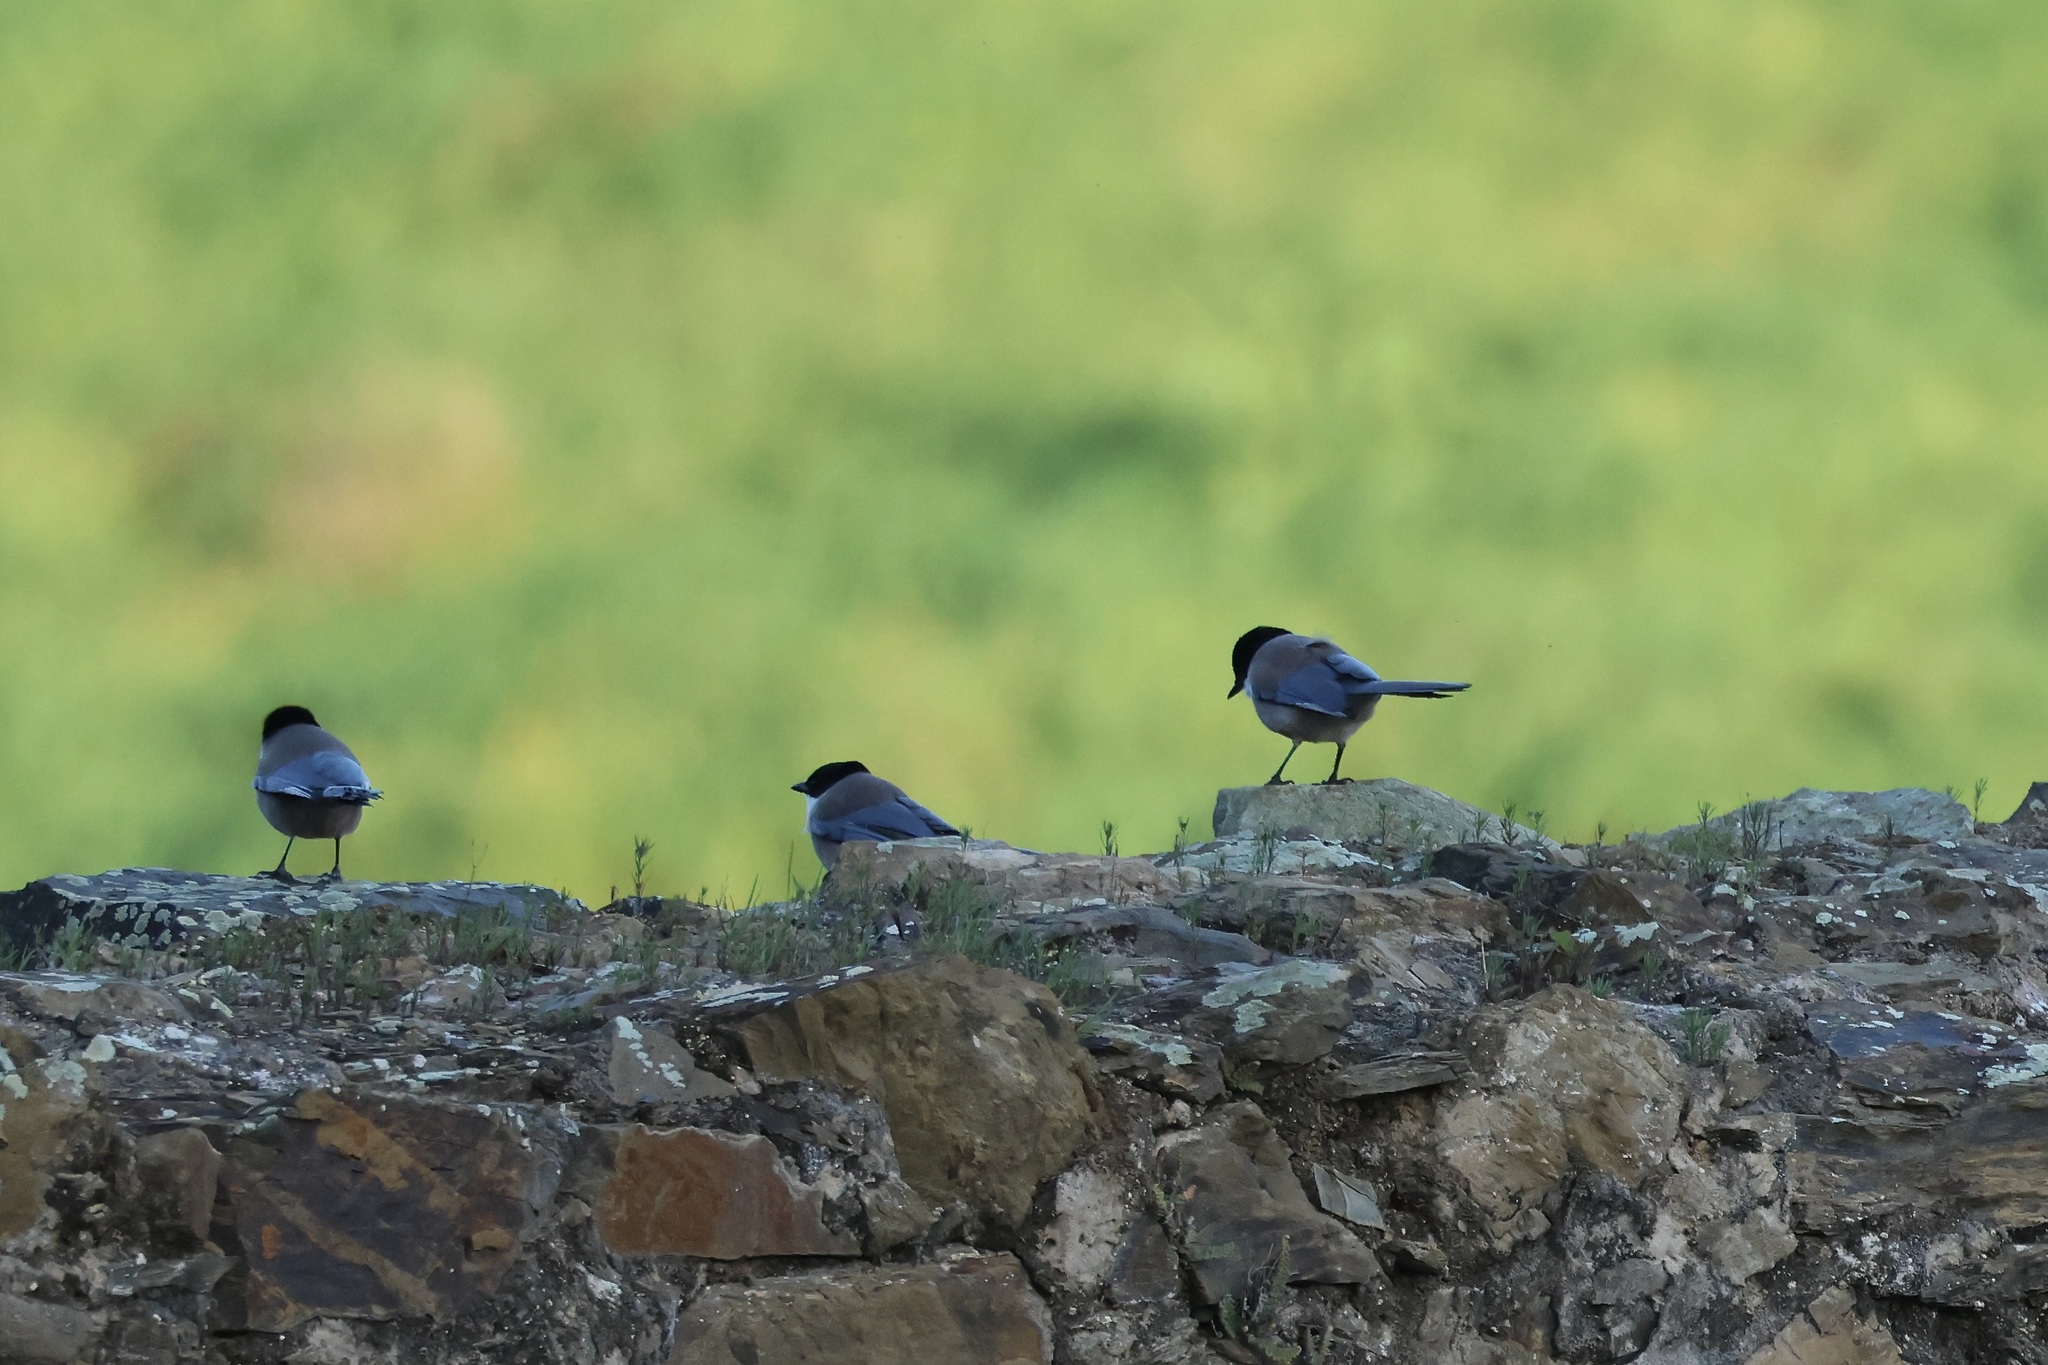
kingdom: Animalia
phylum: Chordata
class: Aves
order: Passeriformes
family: Corvidae
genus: Cyanopica
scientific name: Cyanopica cooki
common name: Iberian magpie
